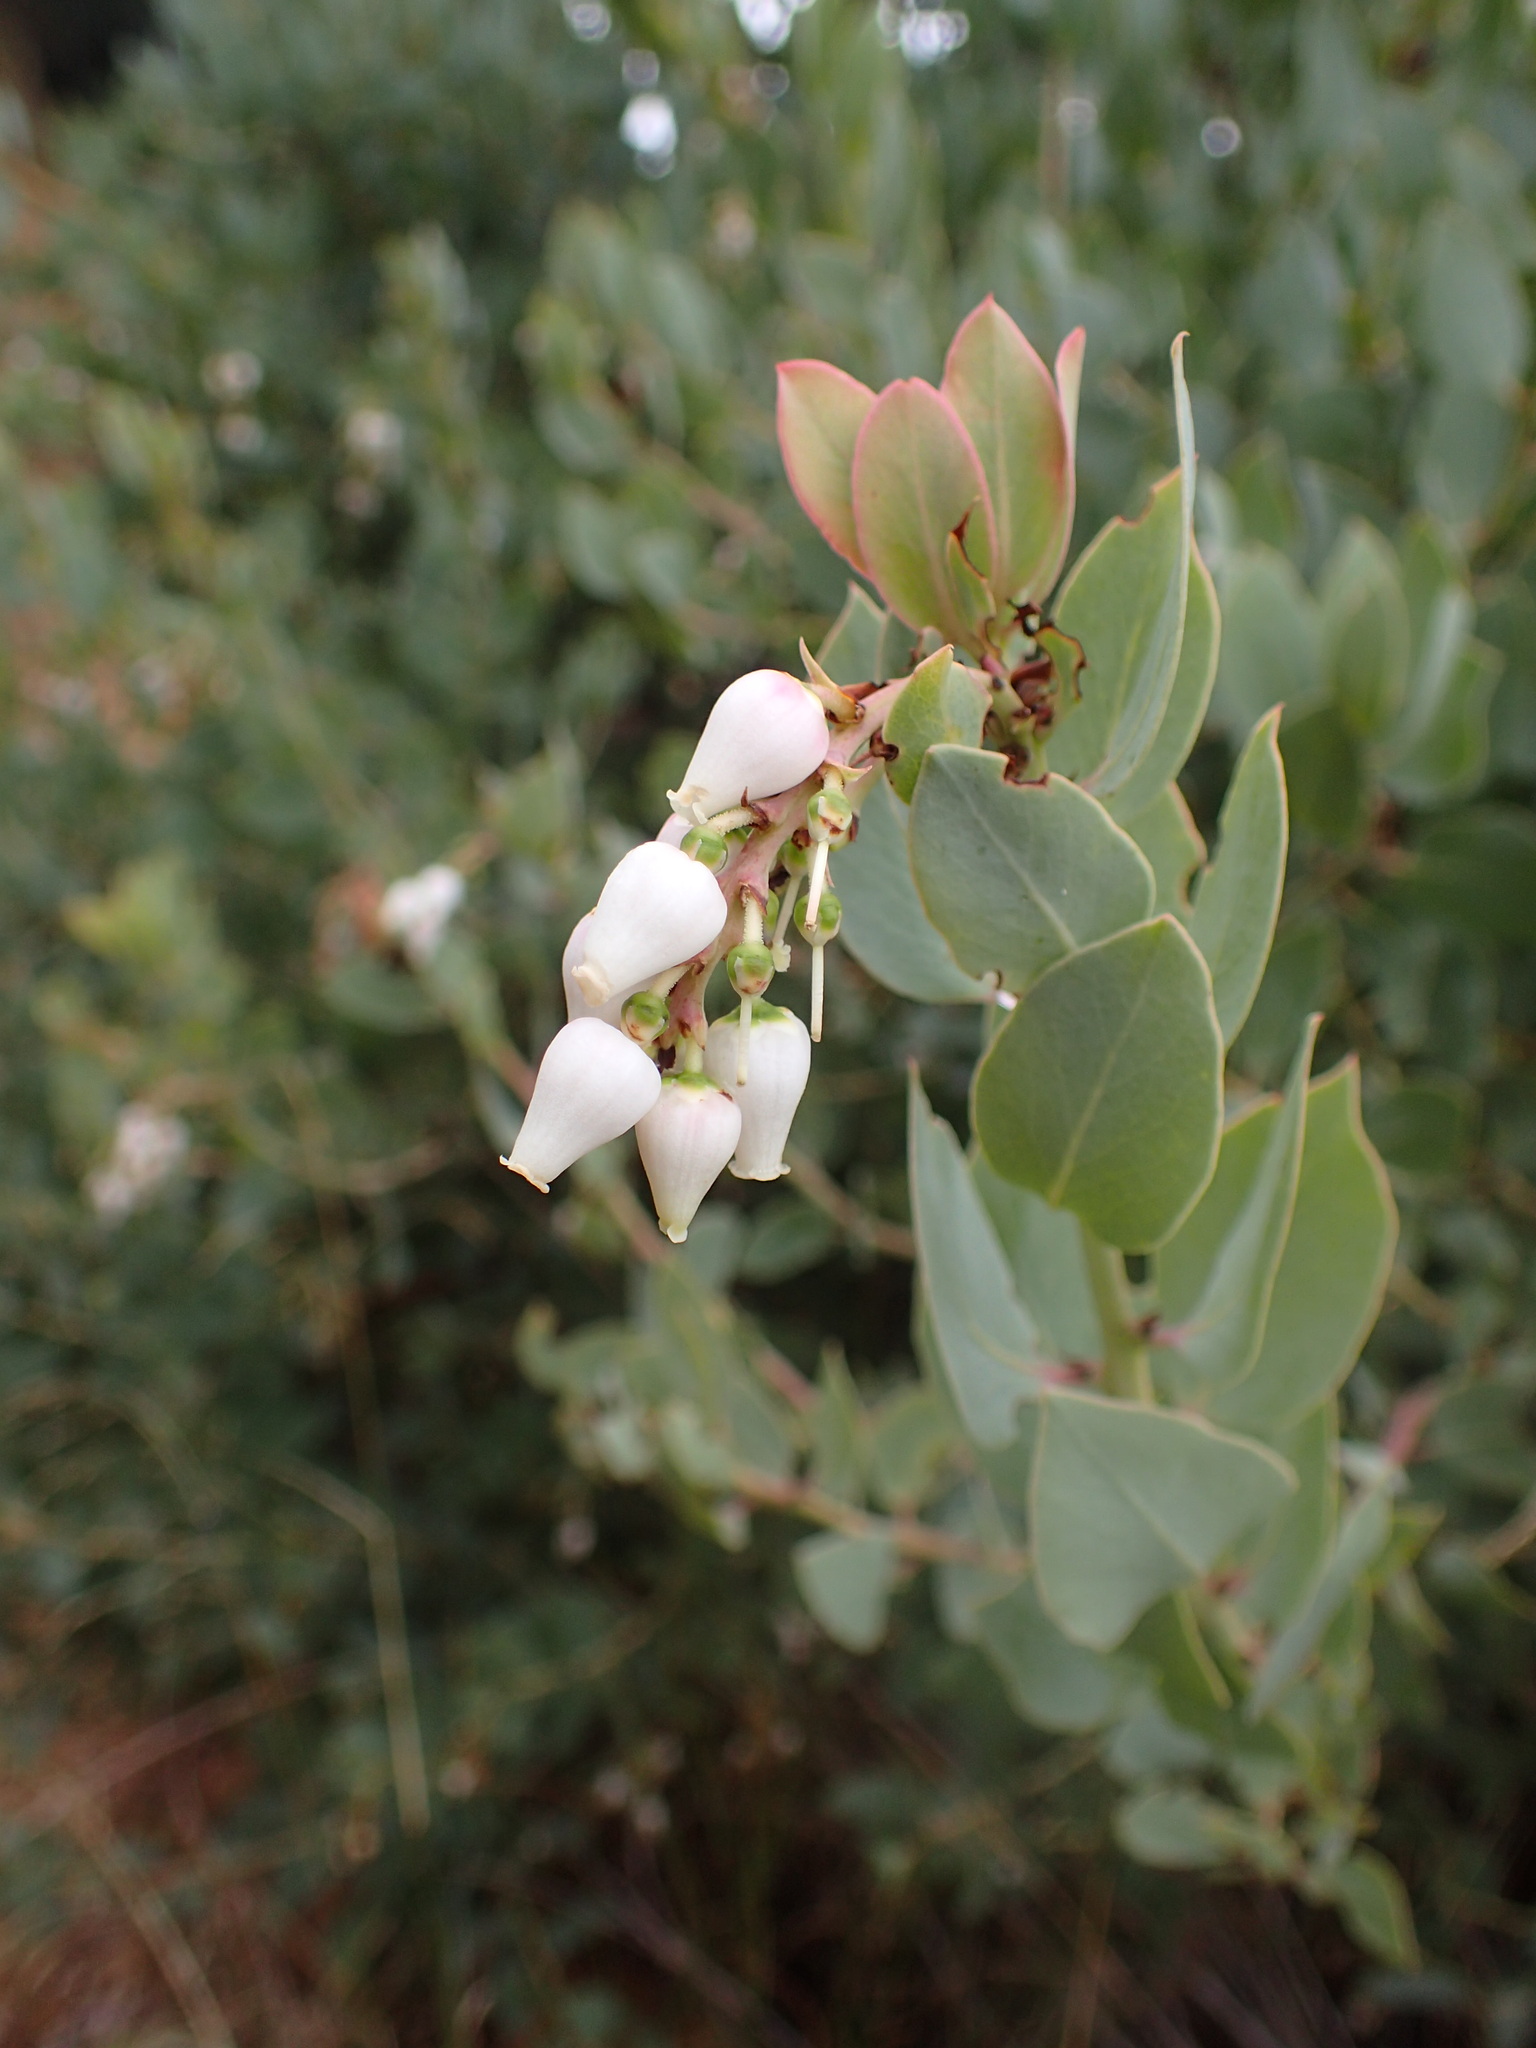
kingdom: Plantae
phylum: Tracheophyta
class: Magnoliopsida
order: Ericales
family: Ericaceae
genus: Arctostaphylos
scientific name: Arctostaphylos glauca
